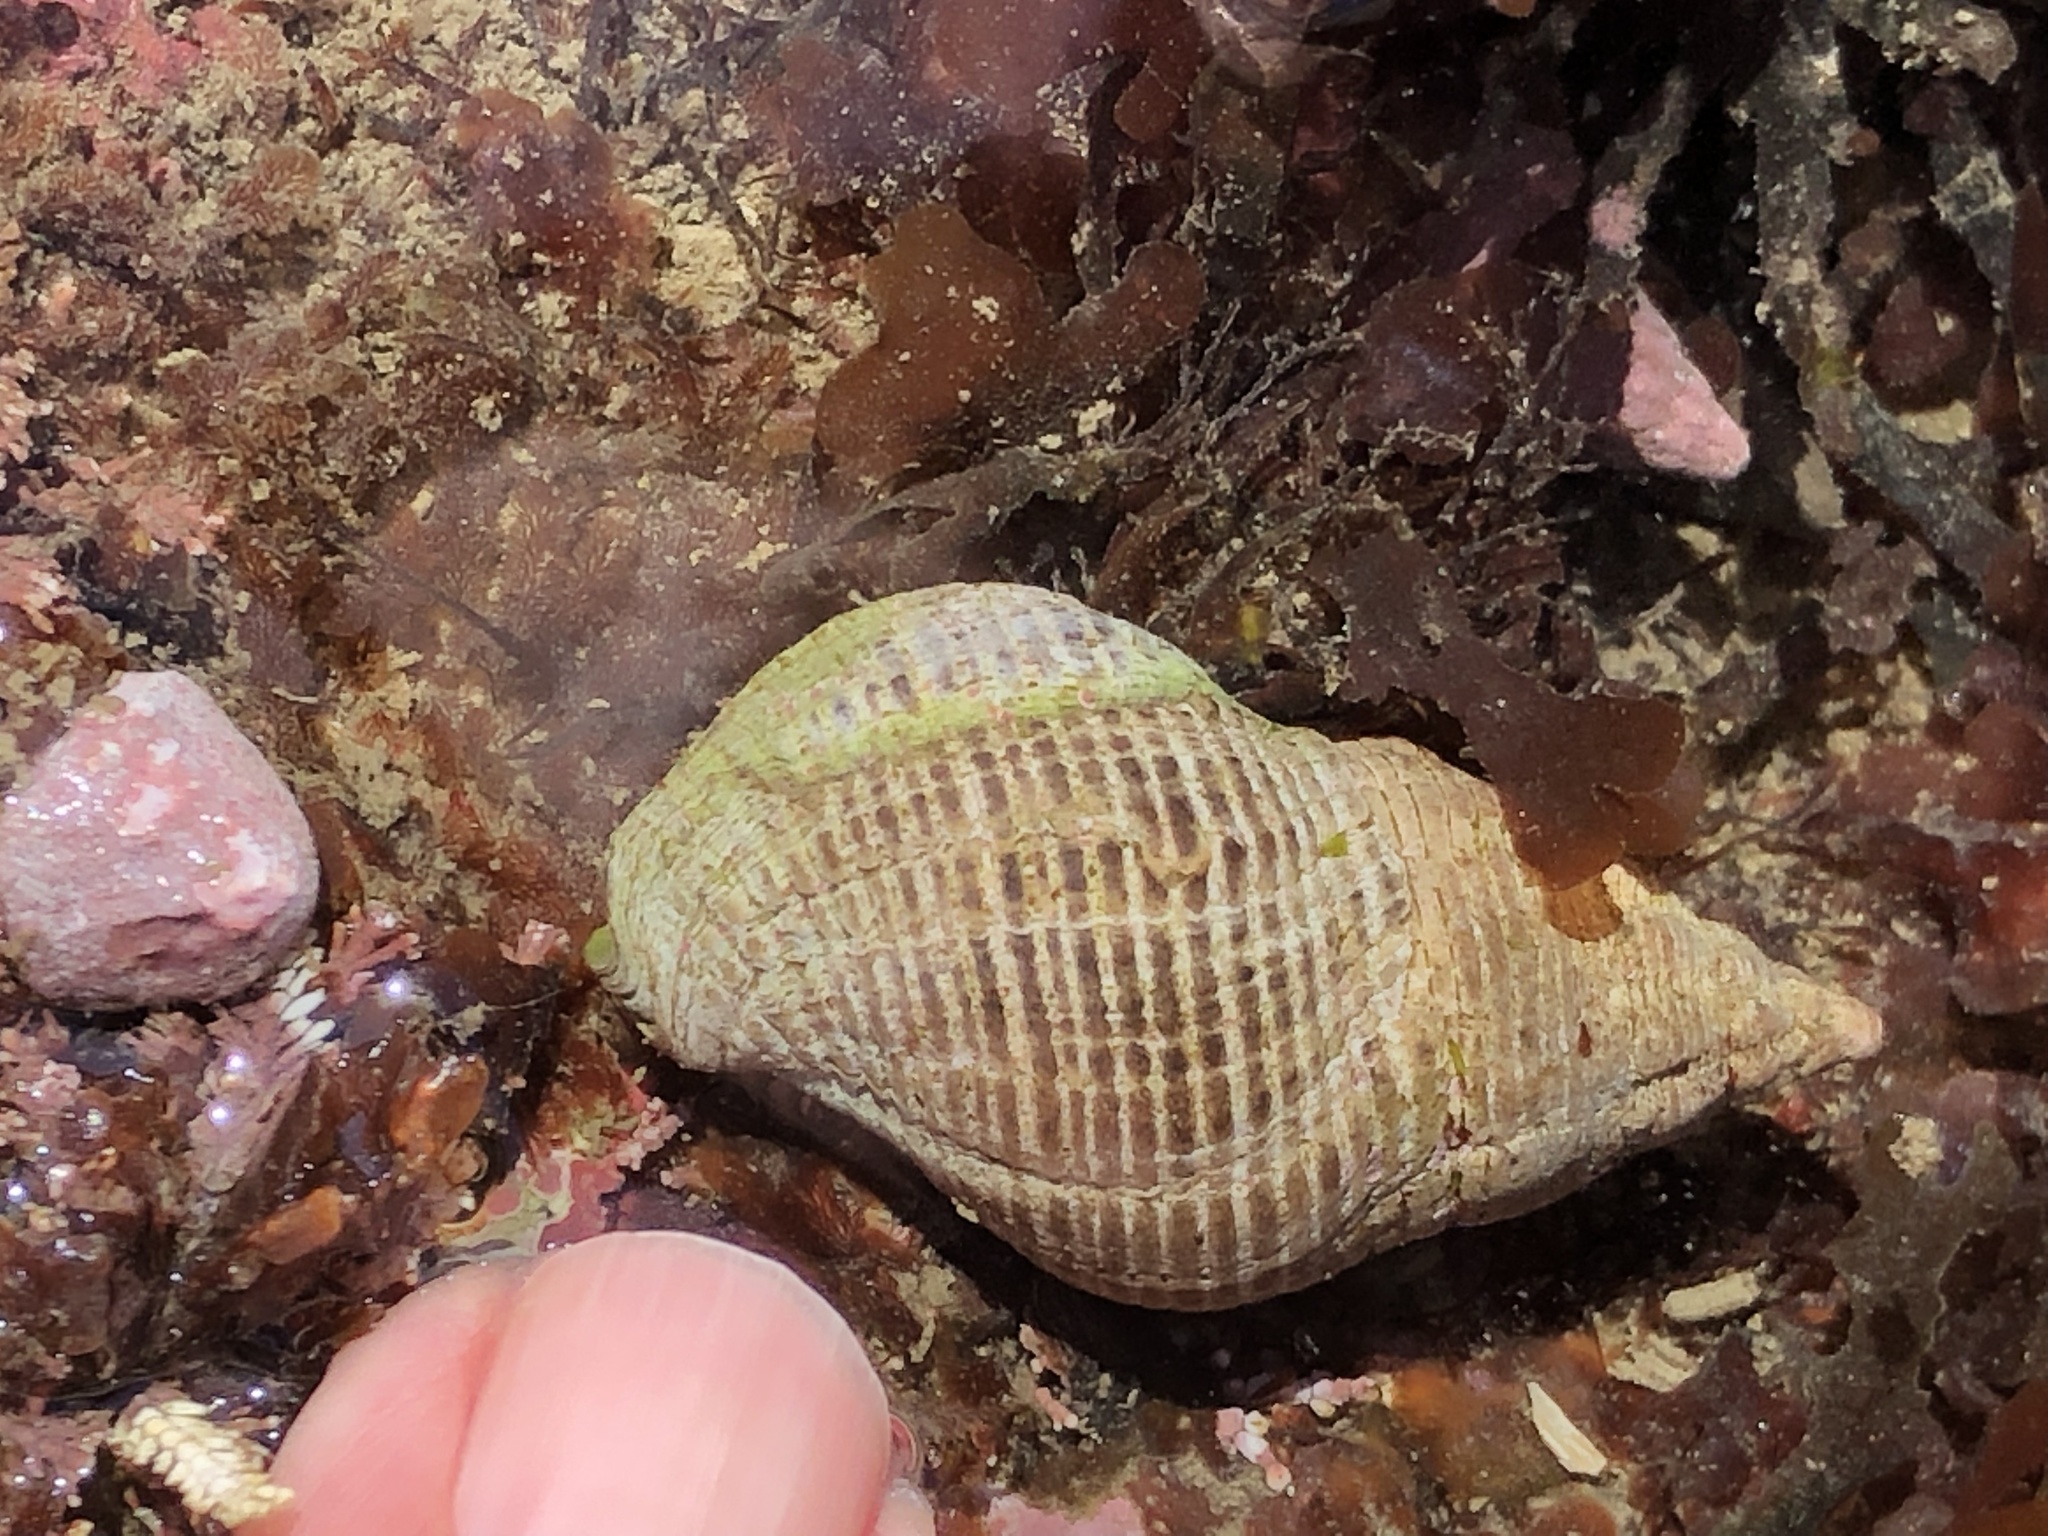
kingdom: Animalia
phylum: Mollusca
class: Gastropoda
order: Neogastropoda
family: Tudiclidae
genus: Lirabuccinum
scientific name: Lirabuccinum dirum
